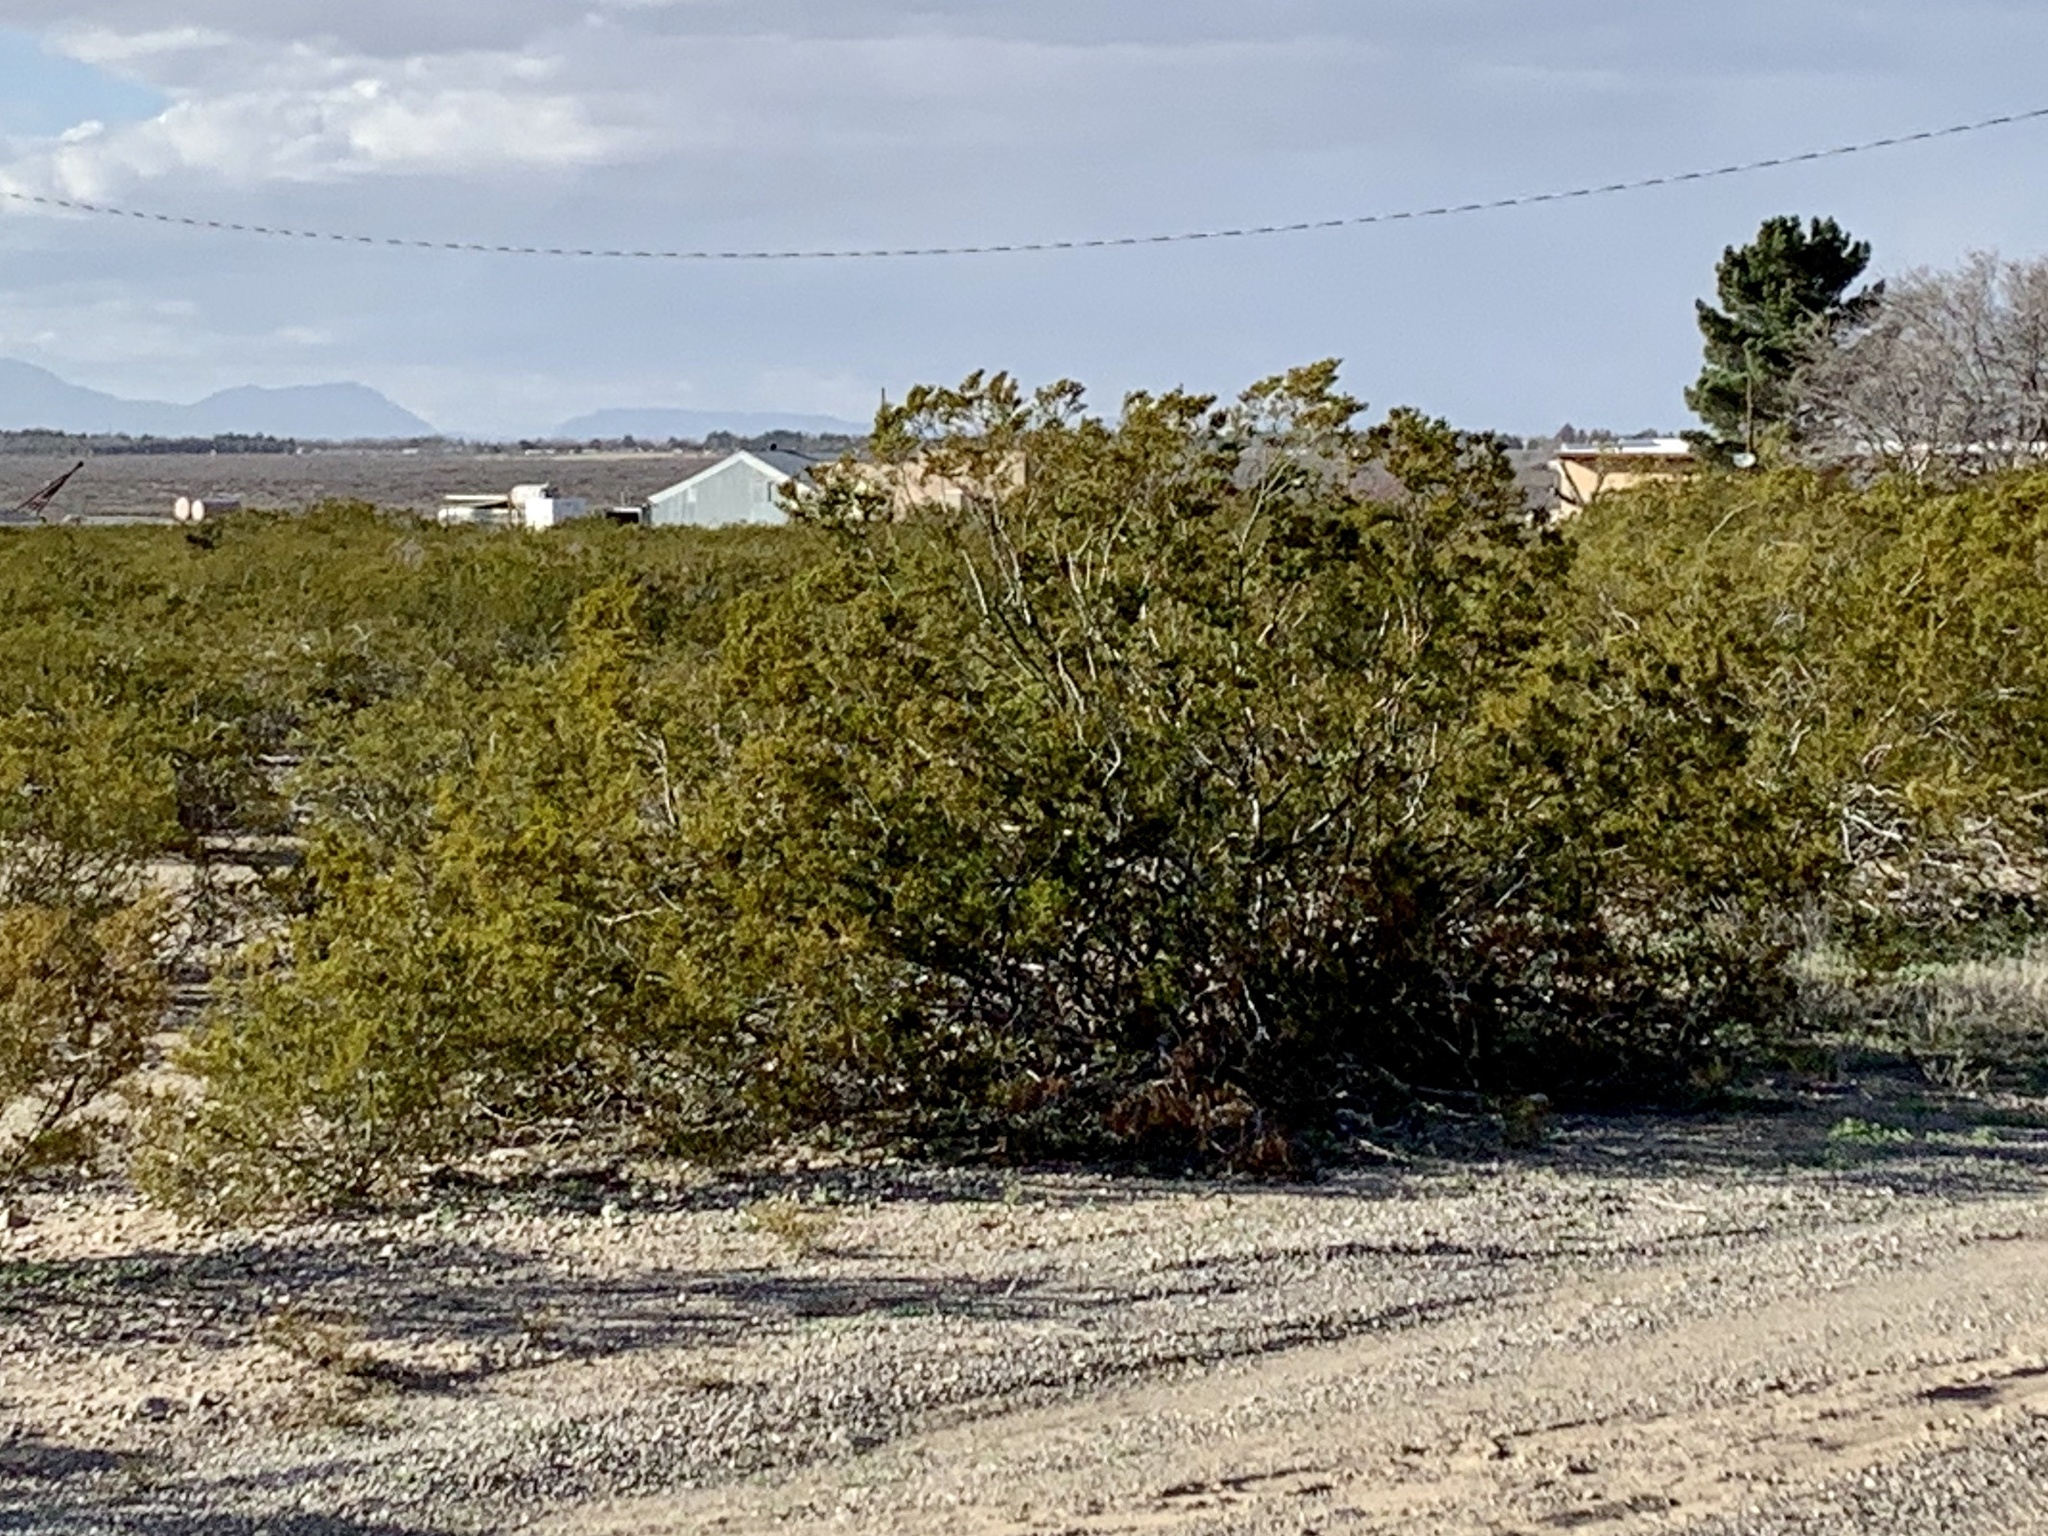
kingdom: Plantae
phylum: Tracheophyta
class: Magnoliopsida
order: Zygophyllales
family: Zygophyllaceae
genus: Larrea
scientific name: Larrea tridentata
